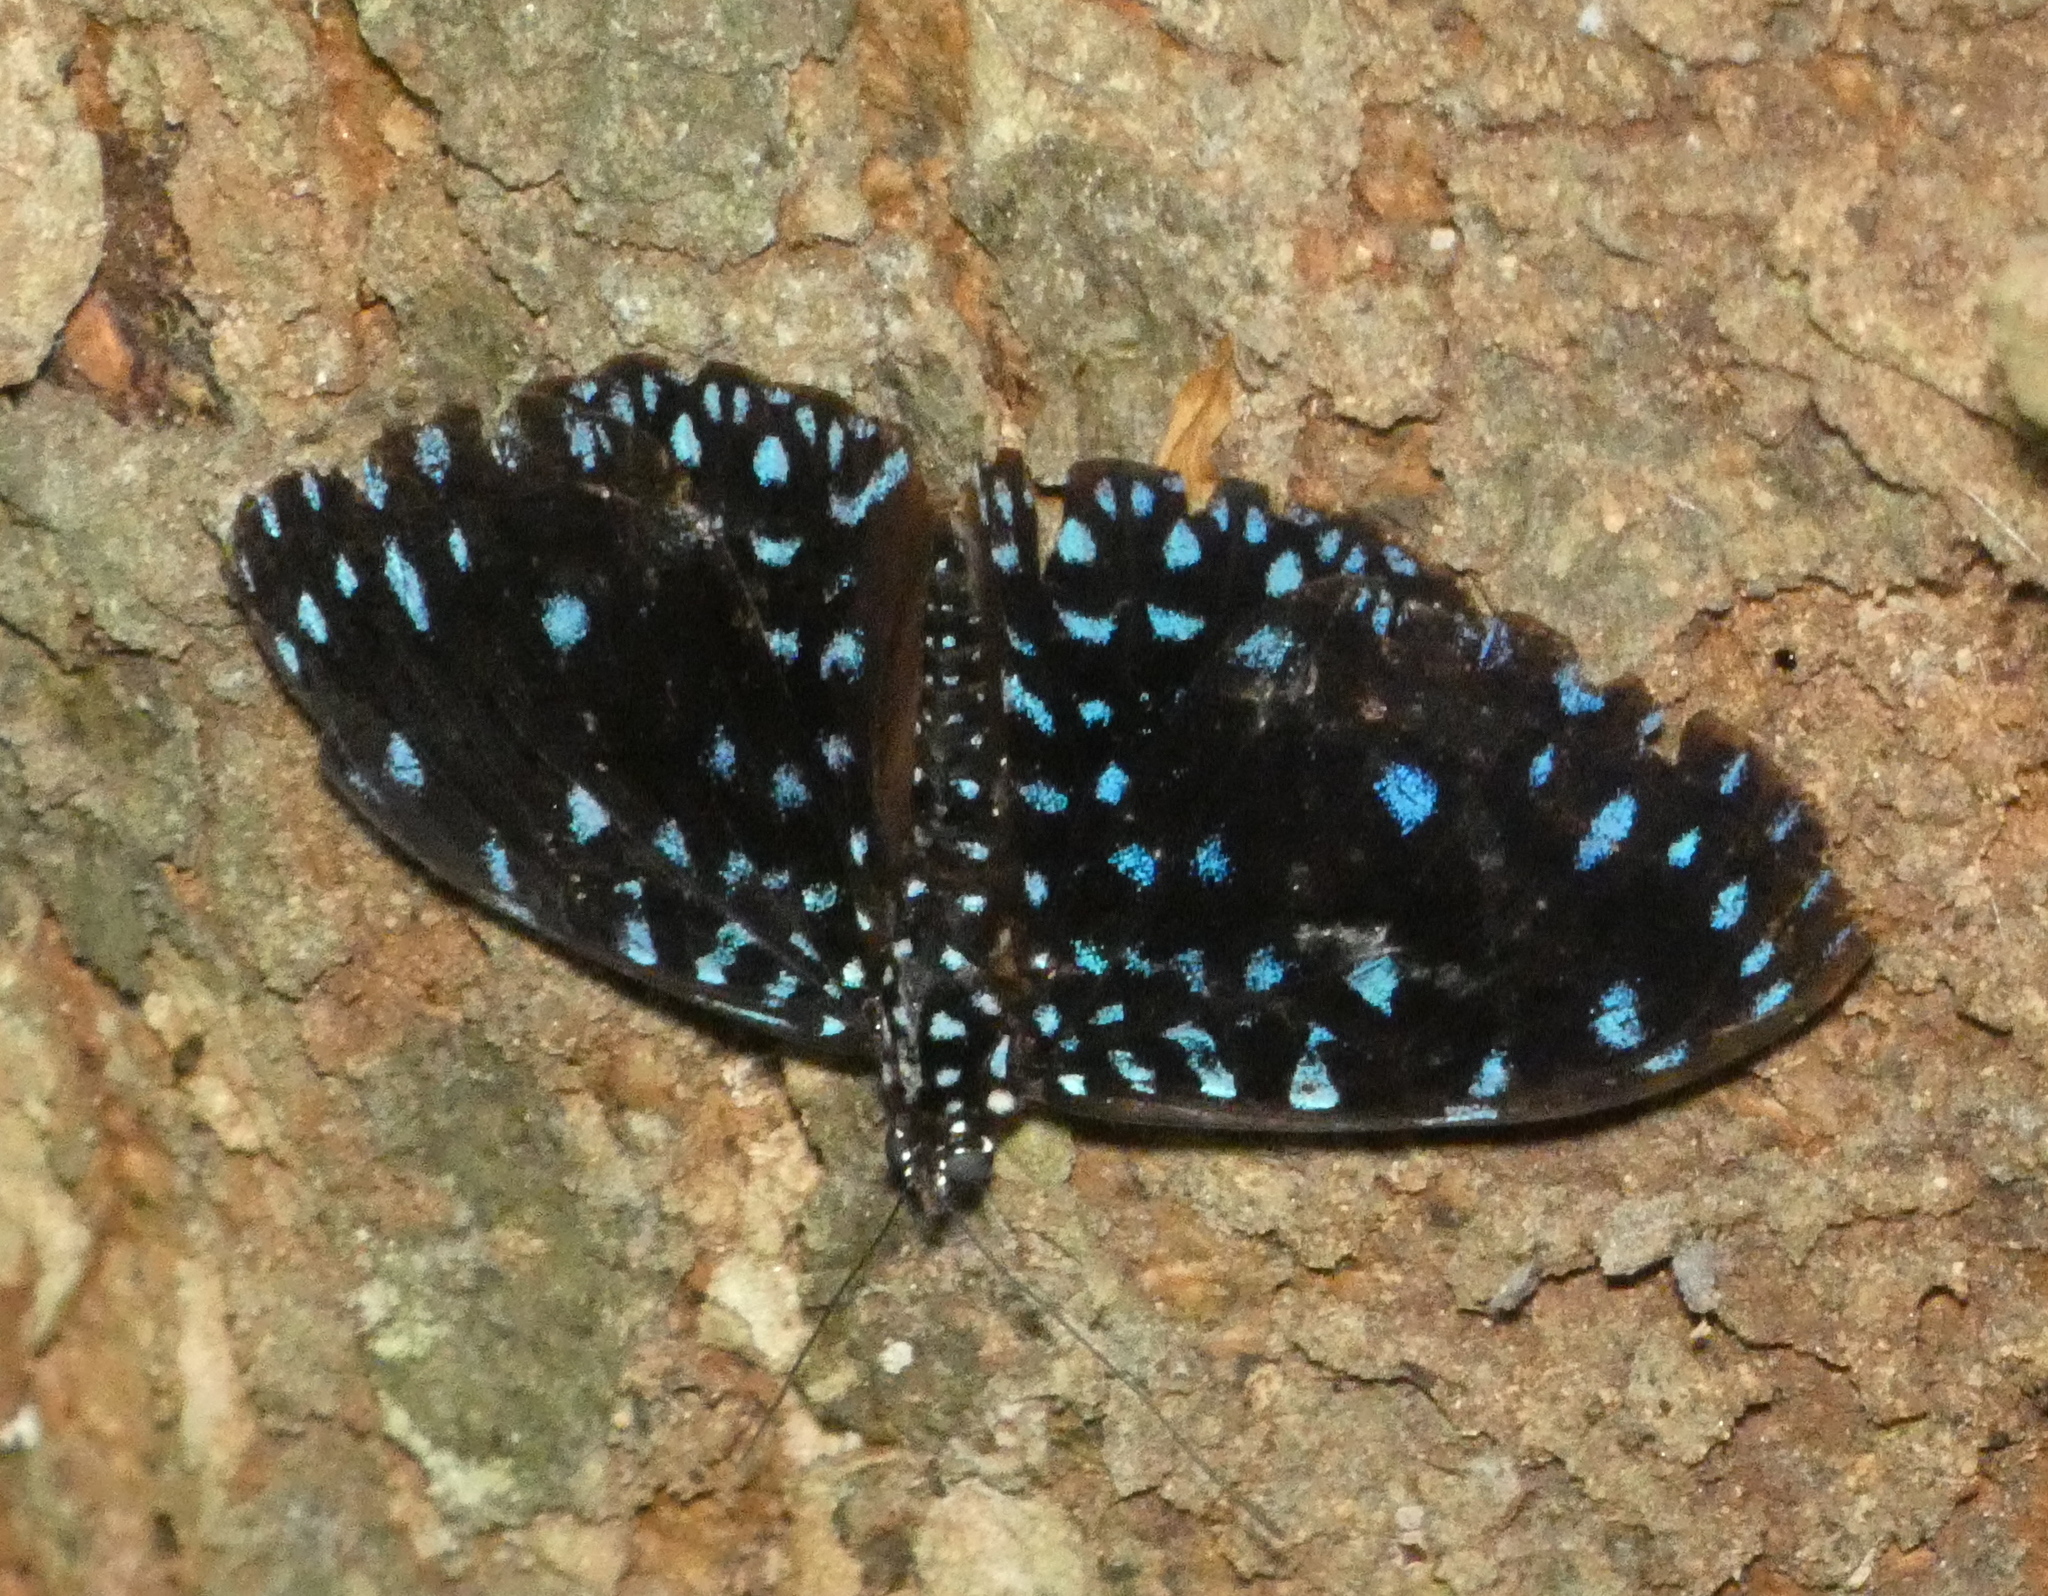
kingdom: Animalia
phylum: Arthropoda
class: Insecta
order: Lepidoptera
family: Nymphalidae
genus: Hamadryas
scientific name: Hamadryas laodamia
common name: Starry night cracker
